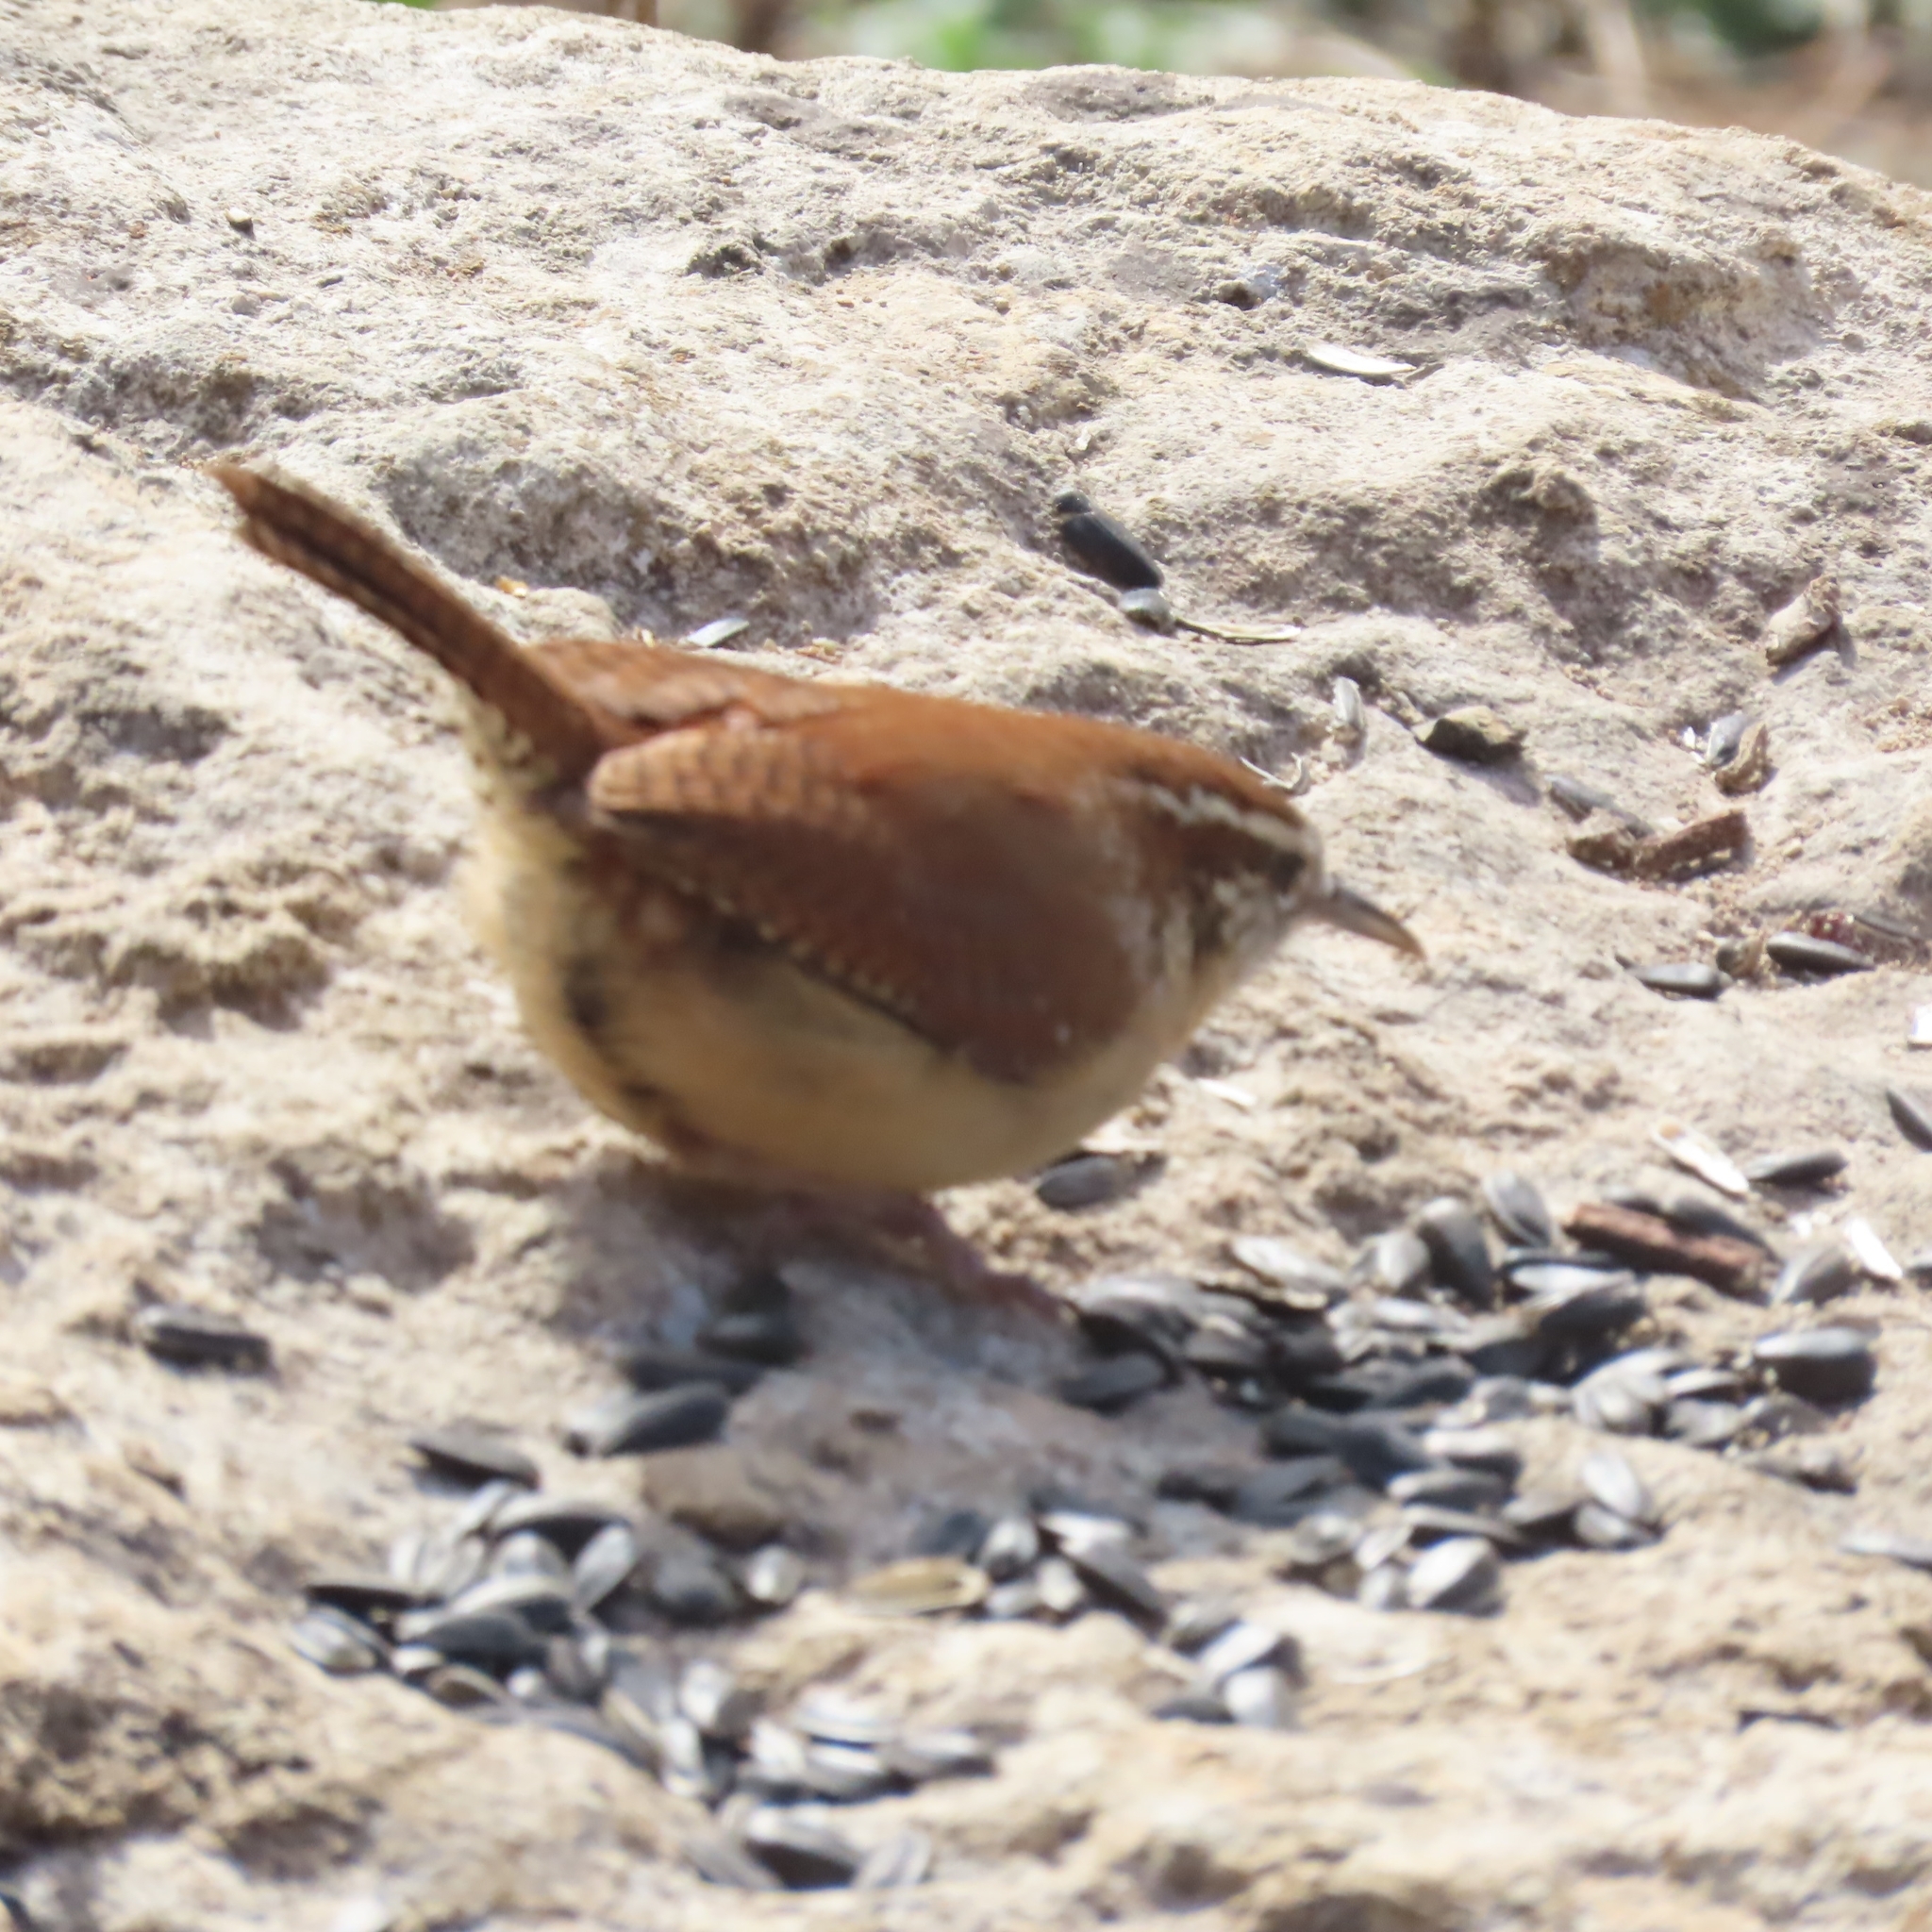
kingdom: Animalia
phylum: Chordata
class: Aves
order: Passeriformes
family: Troglodytidae
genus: Thryothorus
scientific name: Thryothorus ludovicianus
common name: Carolina wren
